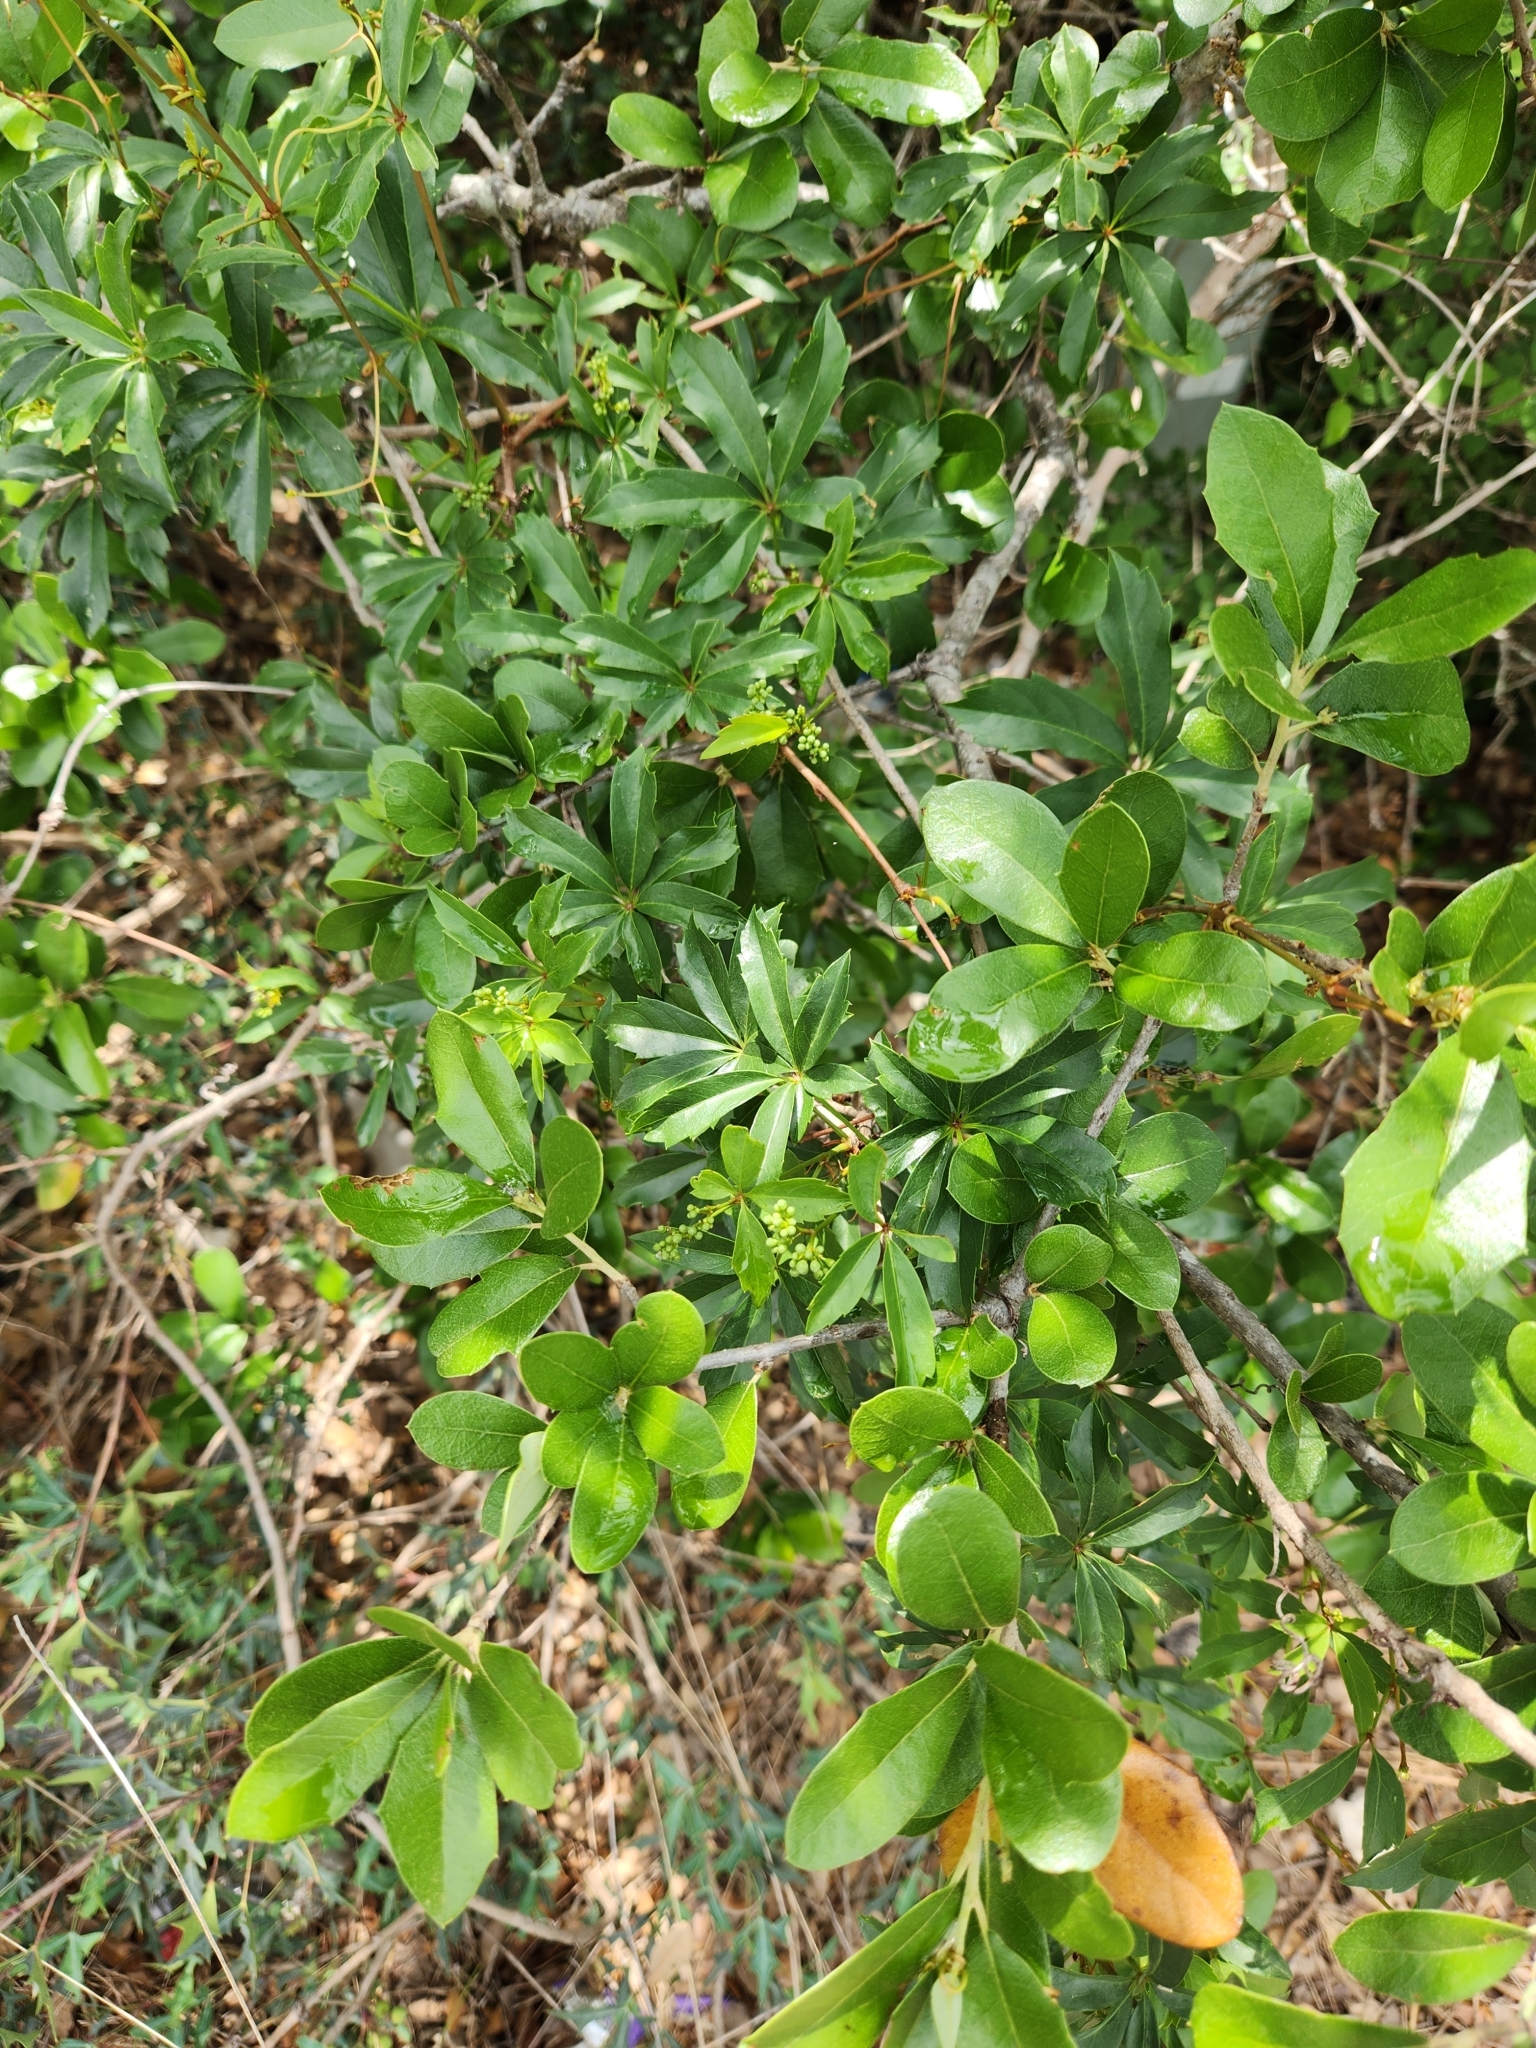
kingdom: Plantae
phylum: Tracheophyta
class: Magnoliopsida
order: Vitales
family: Vitaceae
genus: Parthenocissus
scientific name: Parthenocissus heptaphylla
